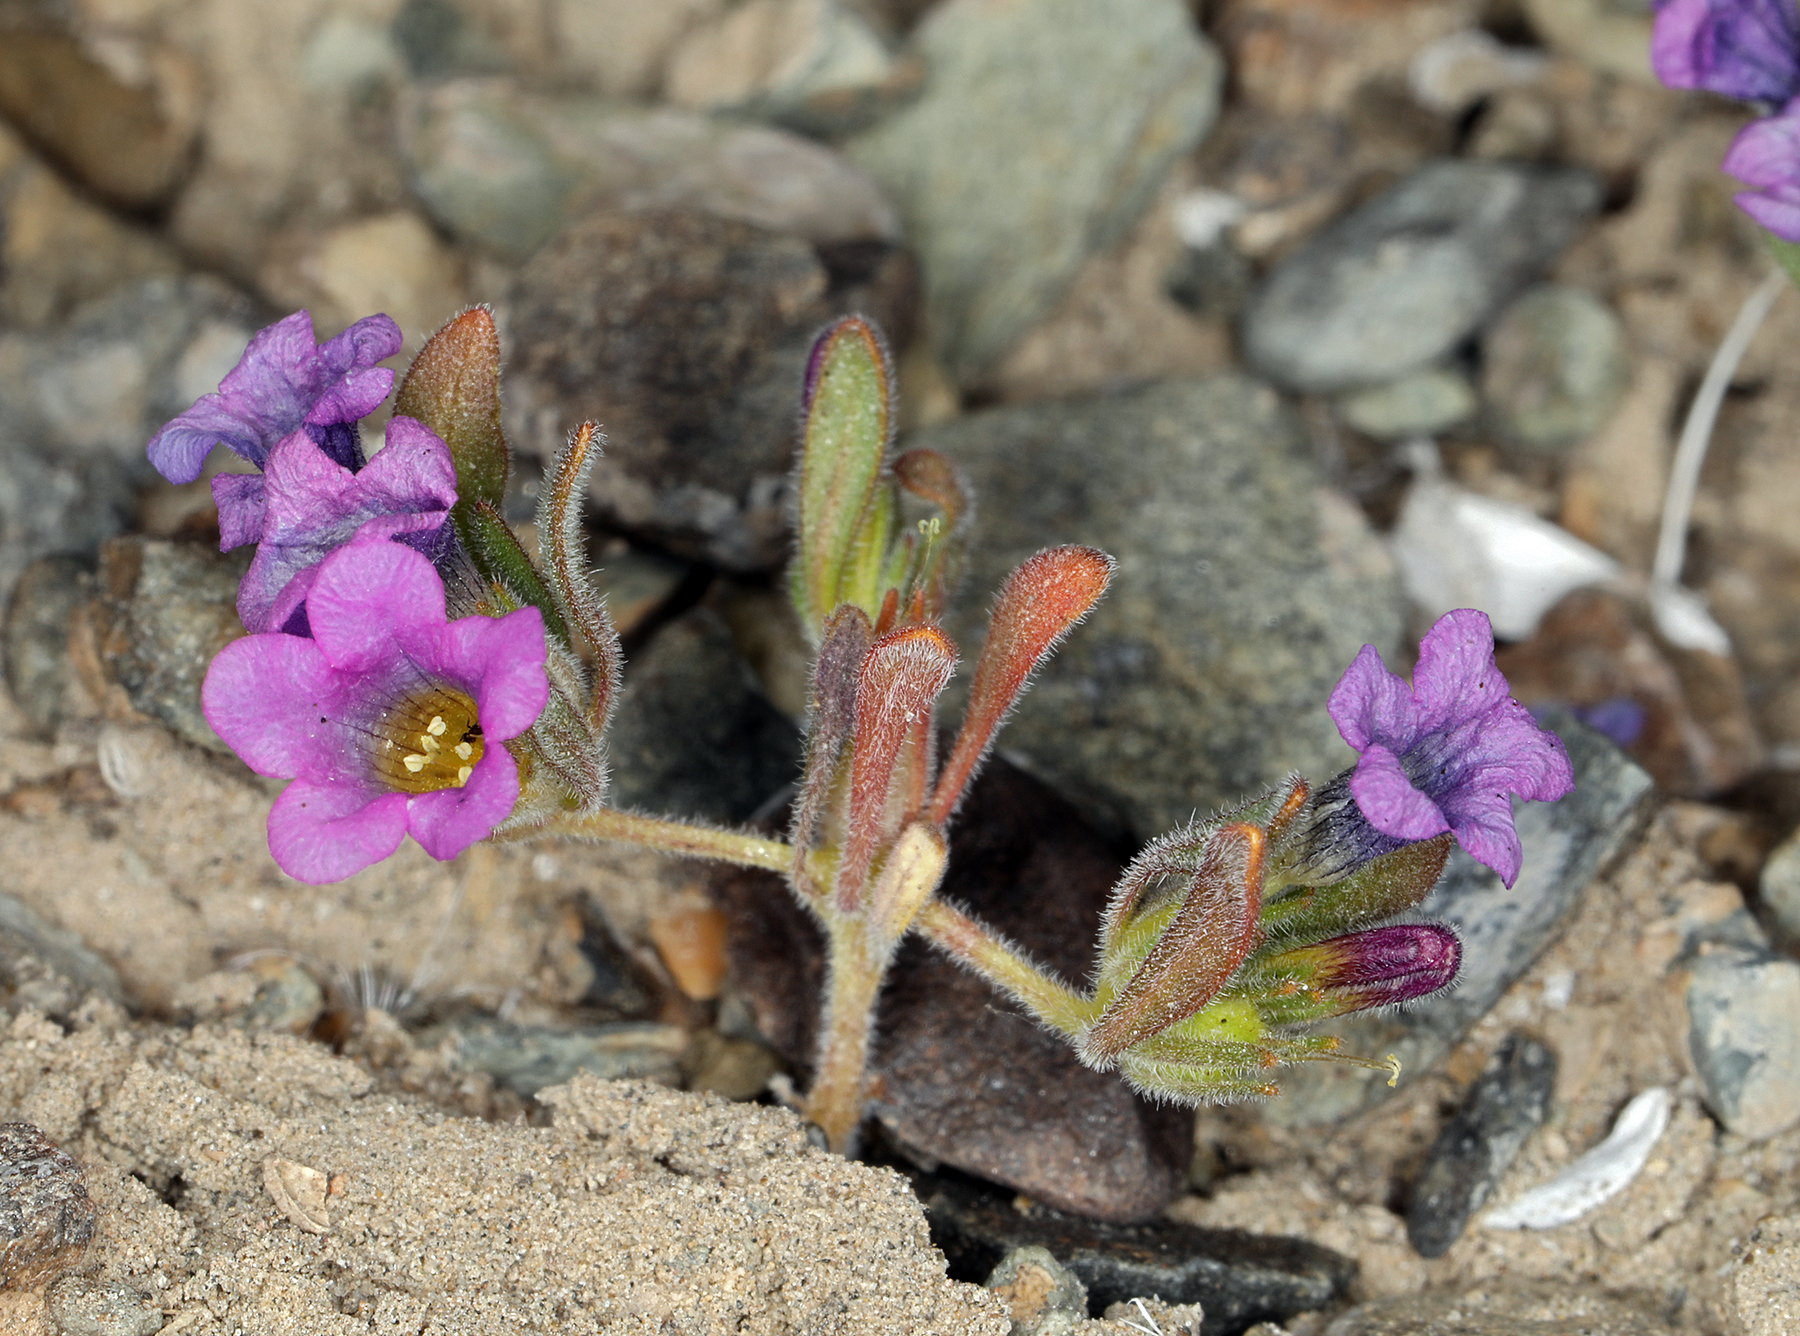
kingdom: Plantae
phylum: Tracheophyta
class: Magnoliopsida
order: Boraginales
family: Namaceae
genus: Nama
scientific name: Nama demissa
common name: Leafy nama
